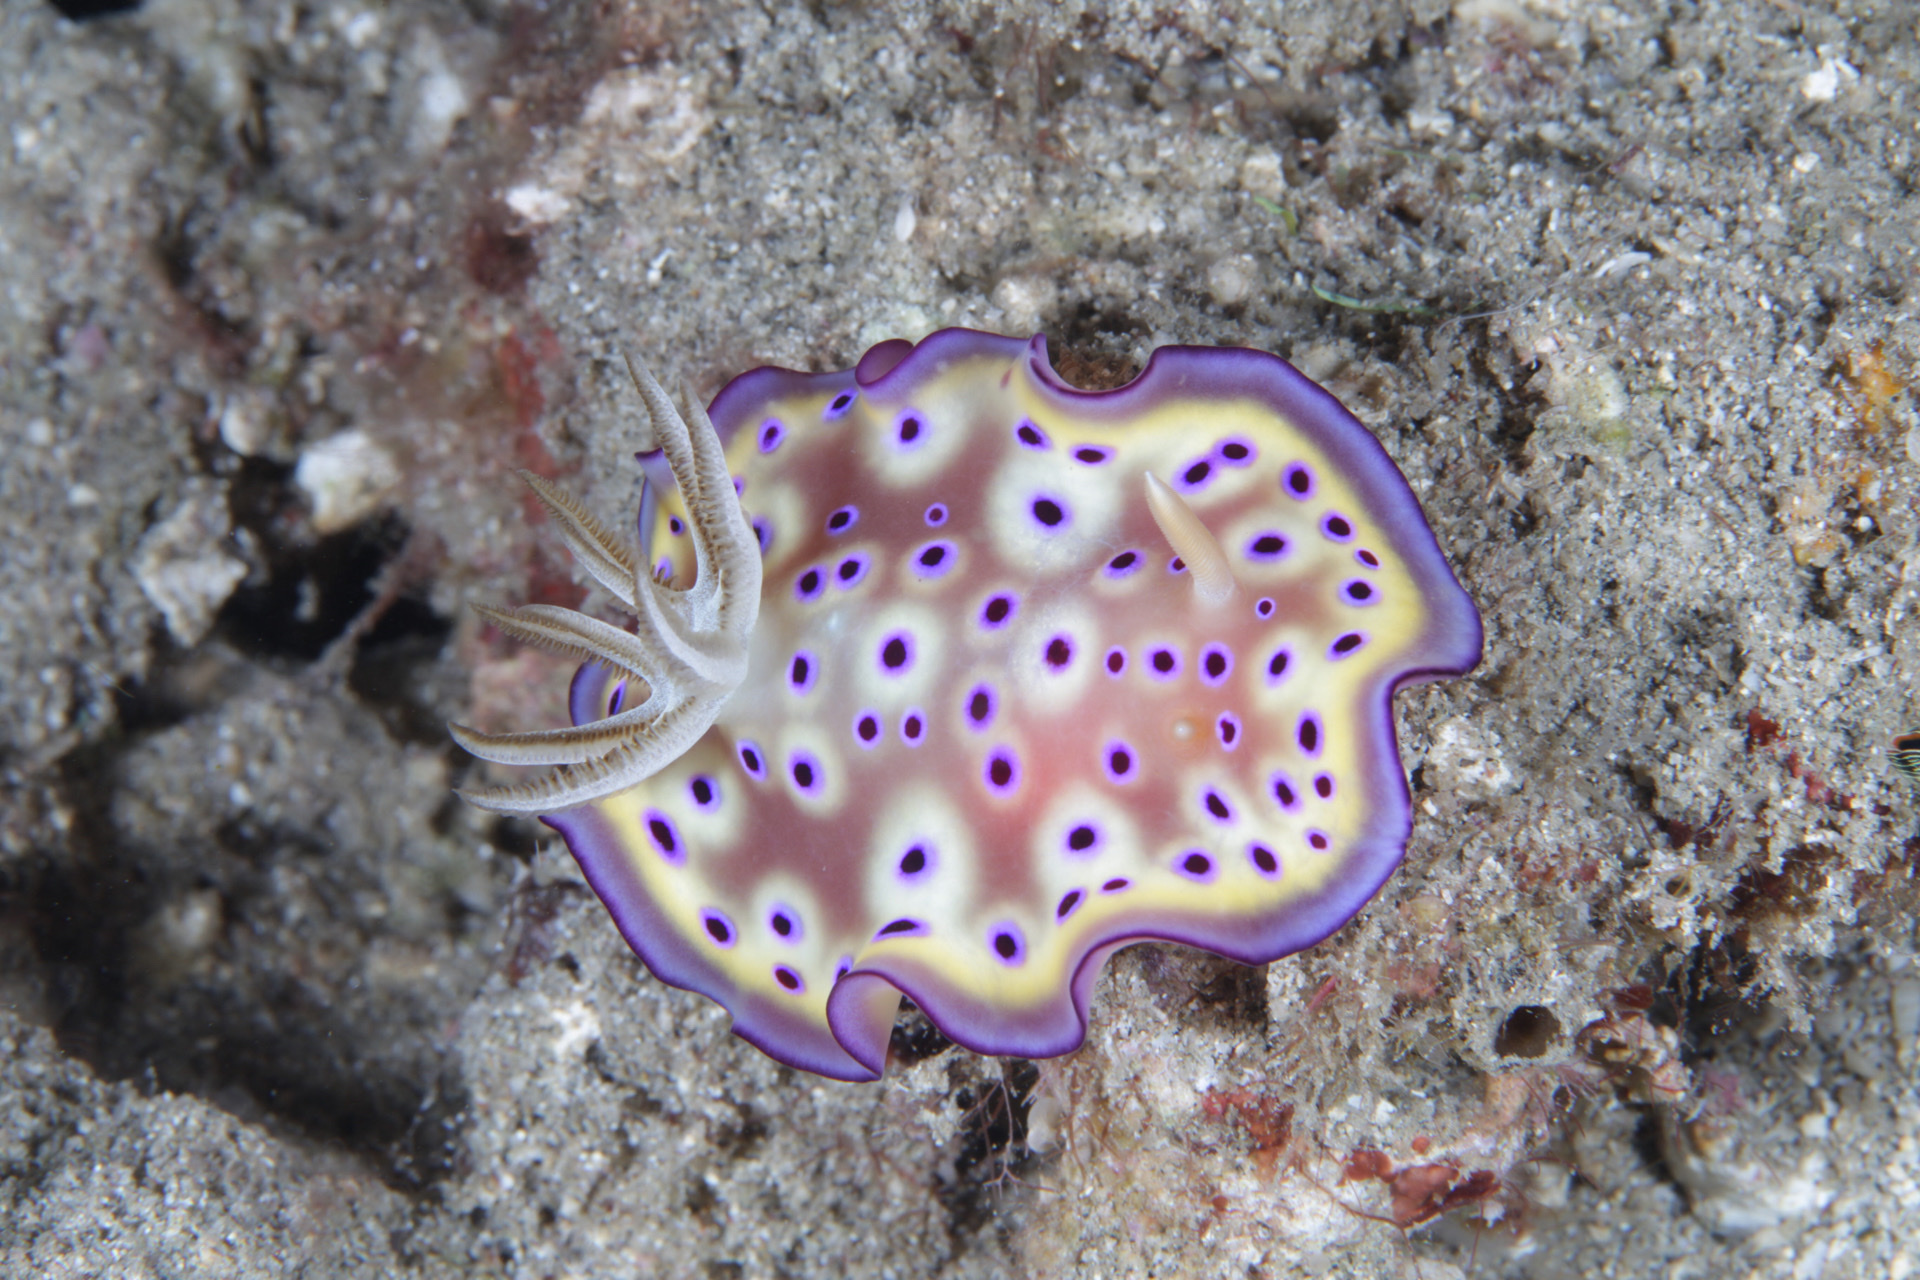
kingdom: Animalia
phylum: Mollusca
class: Gastropoda
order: Nudibranchia
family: Chromodorididae
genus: Goniobranchus
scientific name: Goniobranchus kuniei
